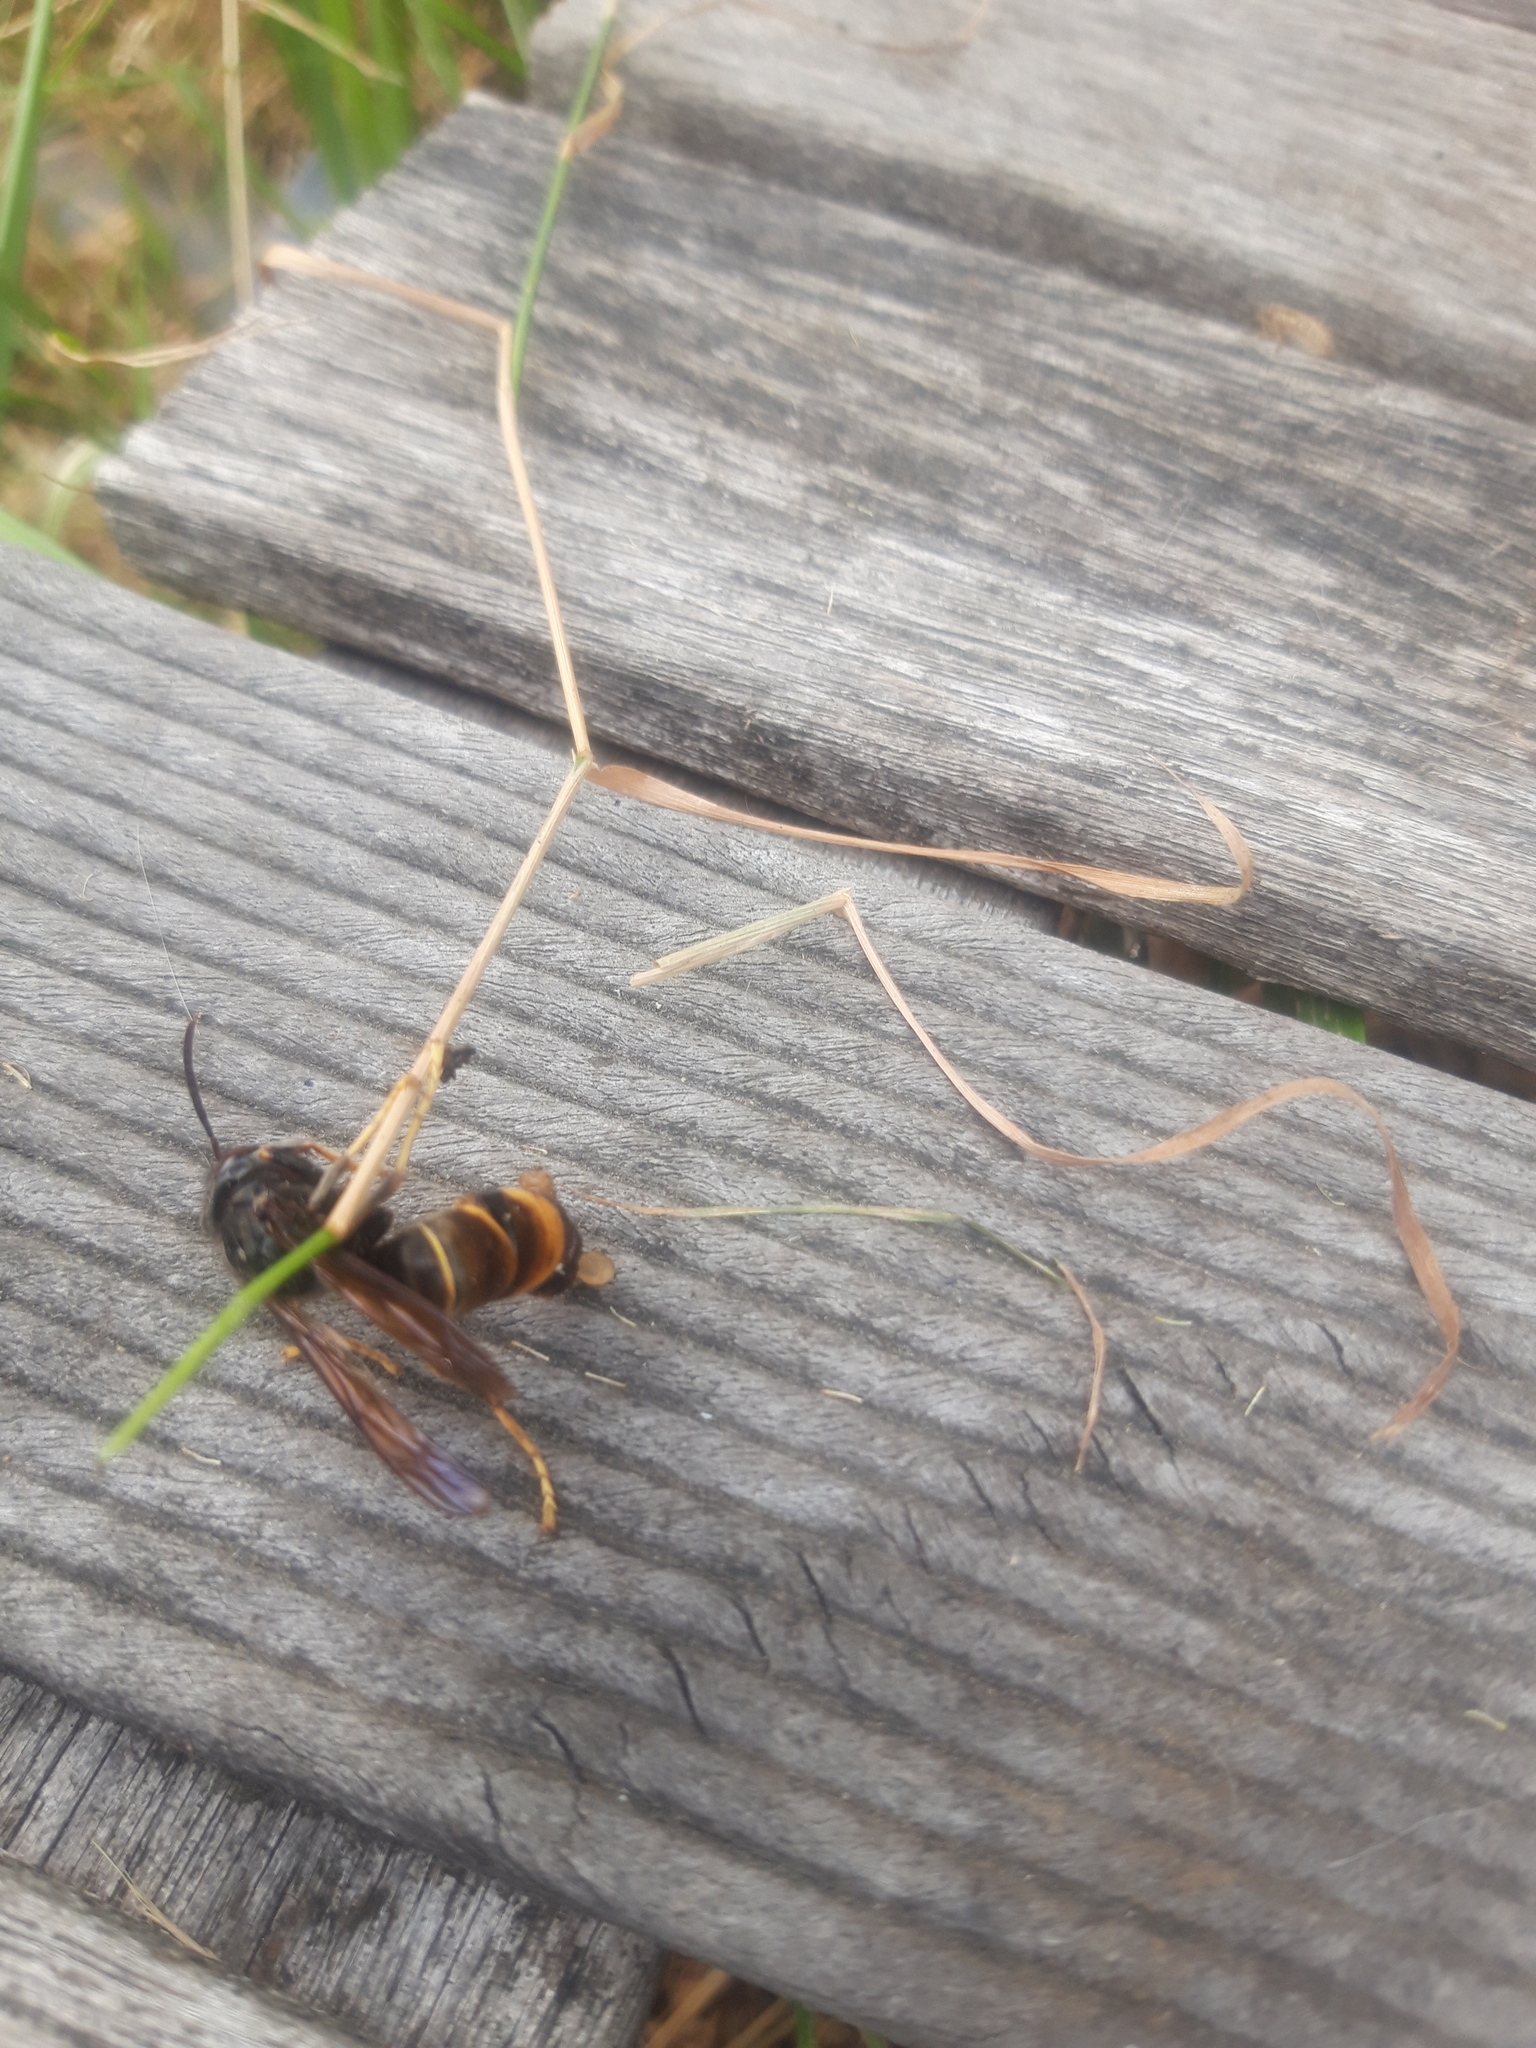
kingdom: Animalia
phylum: Arthropoda
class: Insecta
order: Hymenoptera
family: Vespidae
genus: Vespa
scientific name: Vespa velutina
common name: Asian hornet
